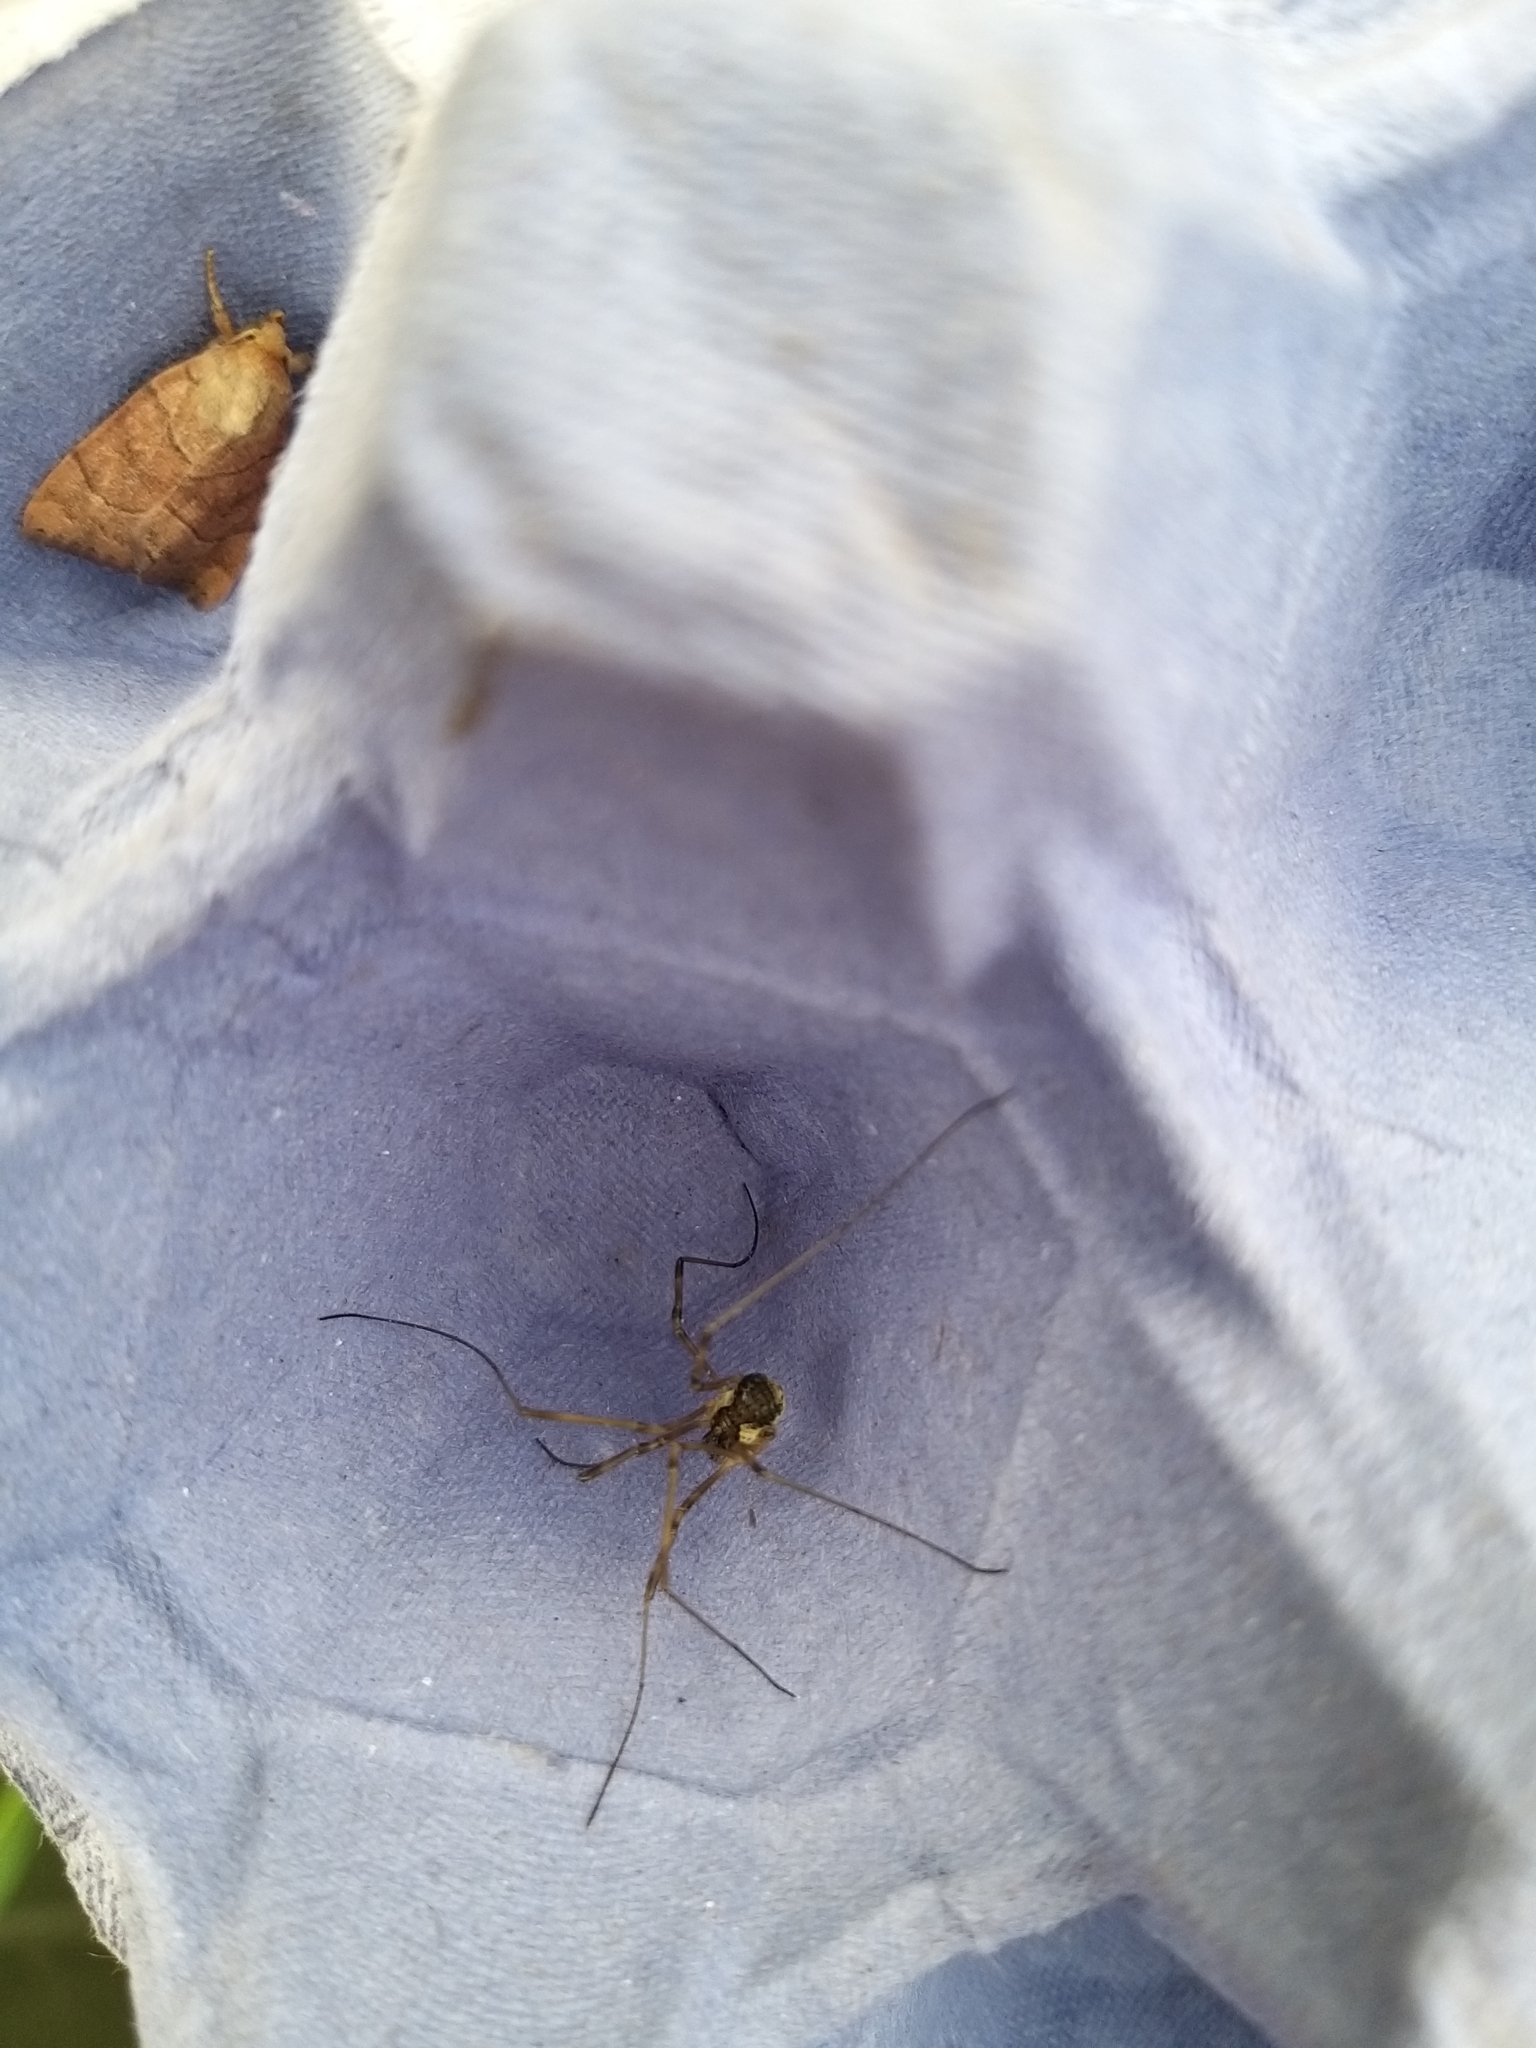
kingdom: Animalia
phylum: Arthropoda
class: Arachnida
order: Opiliones
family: Phalangiidae
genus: Mitopus
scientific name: Mitopus morio
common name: Saddleback harvestman
